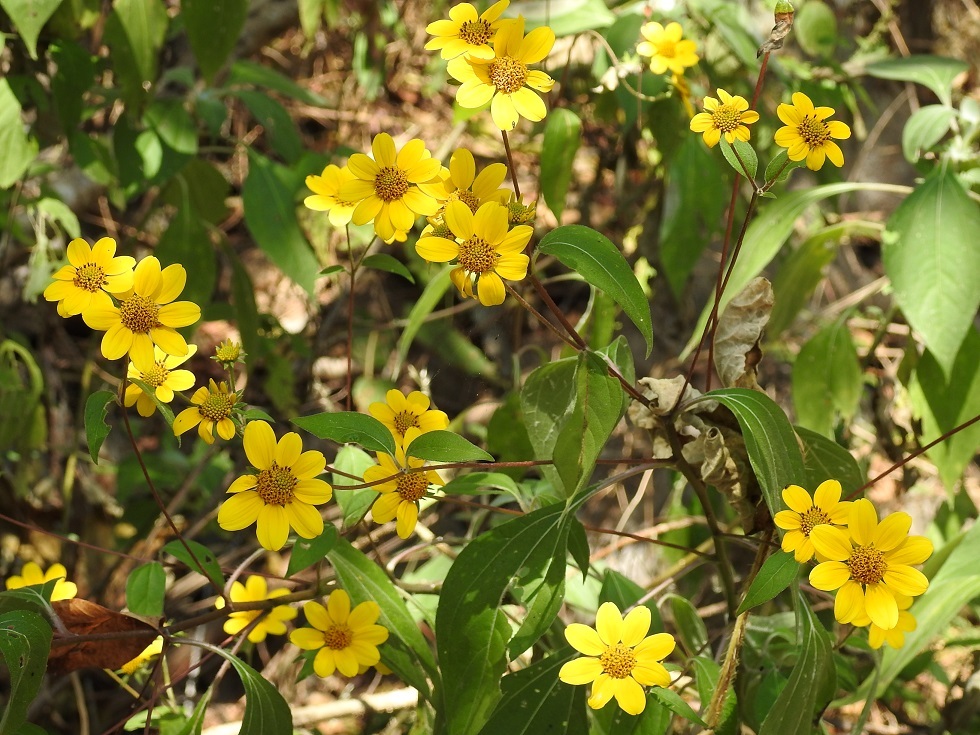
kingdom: Plantae
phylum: Tracheophyta
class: Magnoliopsida
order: Asterales
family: Asteraceae
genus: Verbesina
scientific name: Verbesina hypoglauca
